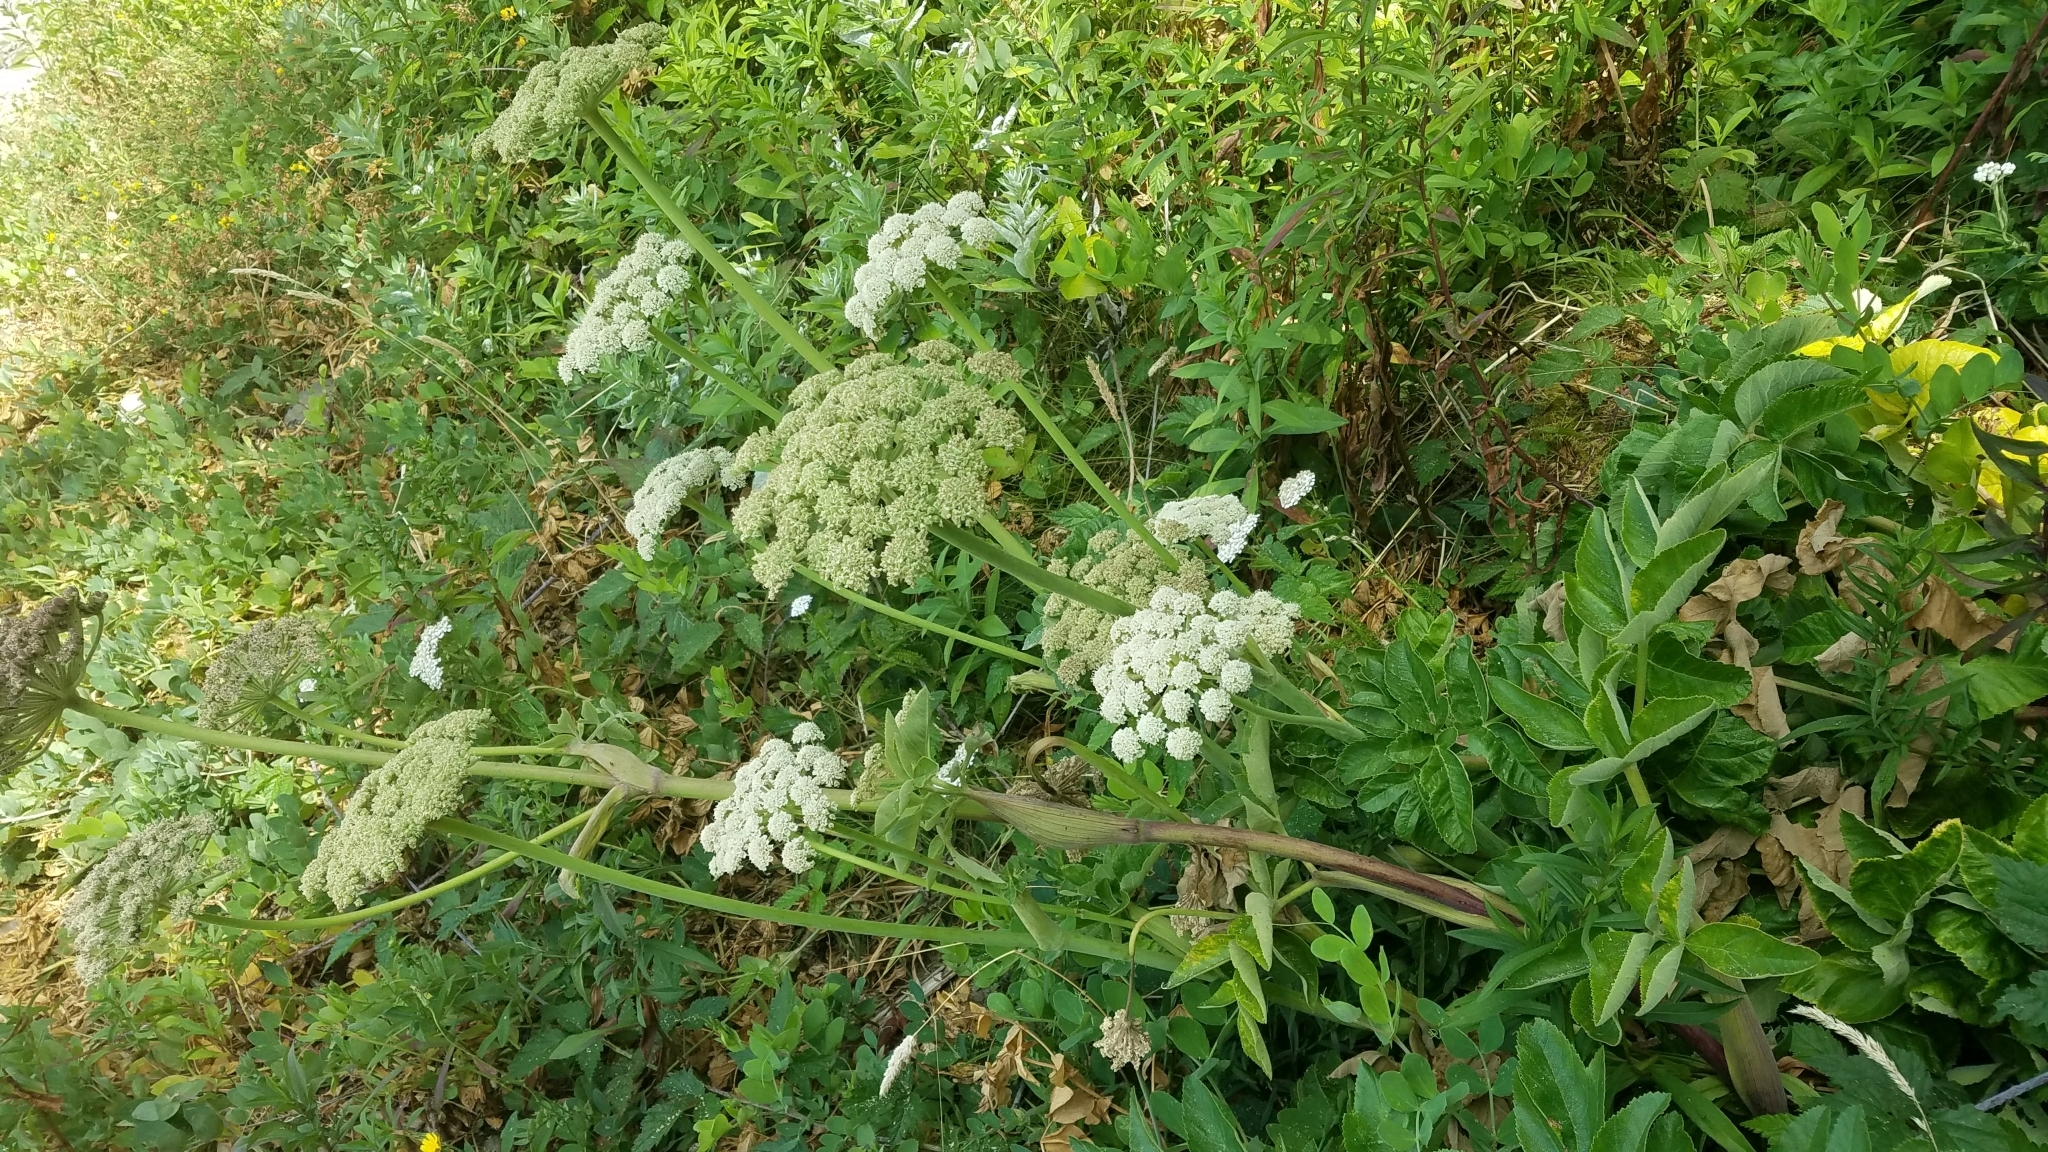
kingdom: Plantae
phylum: Tracheophyta
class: Magnoliopsida
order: Apiales
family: Apiaceae
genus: Angelica
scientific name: Angelica hendersonii
